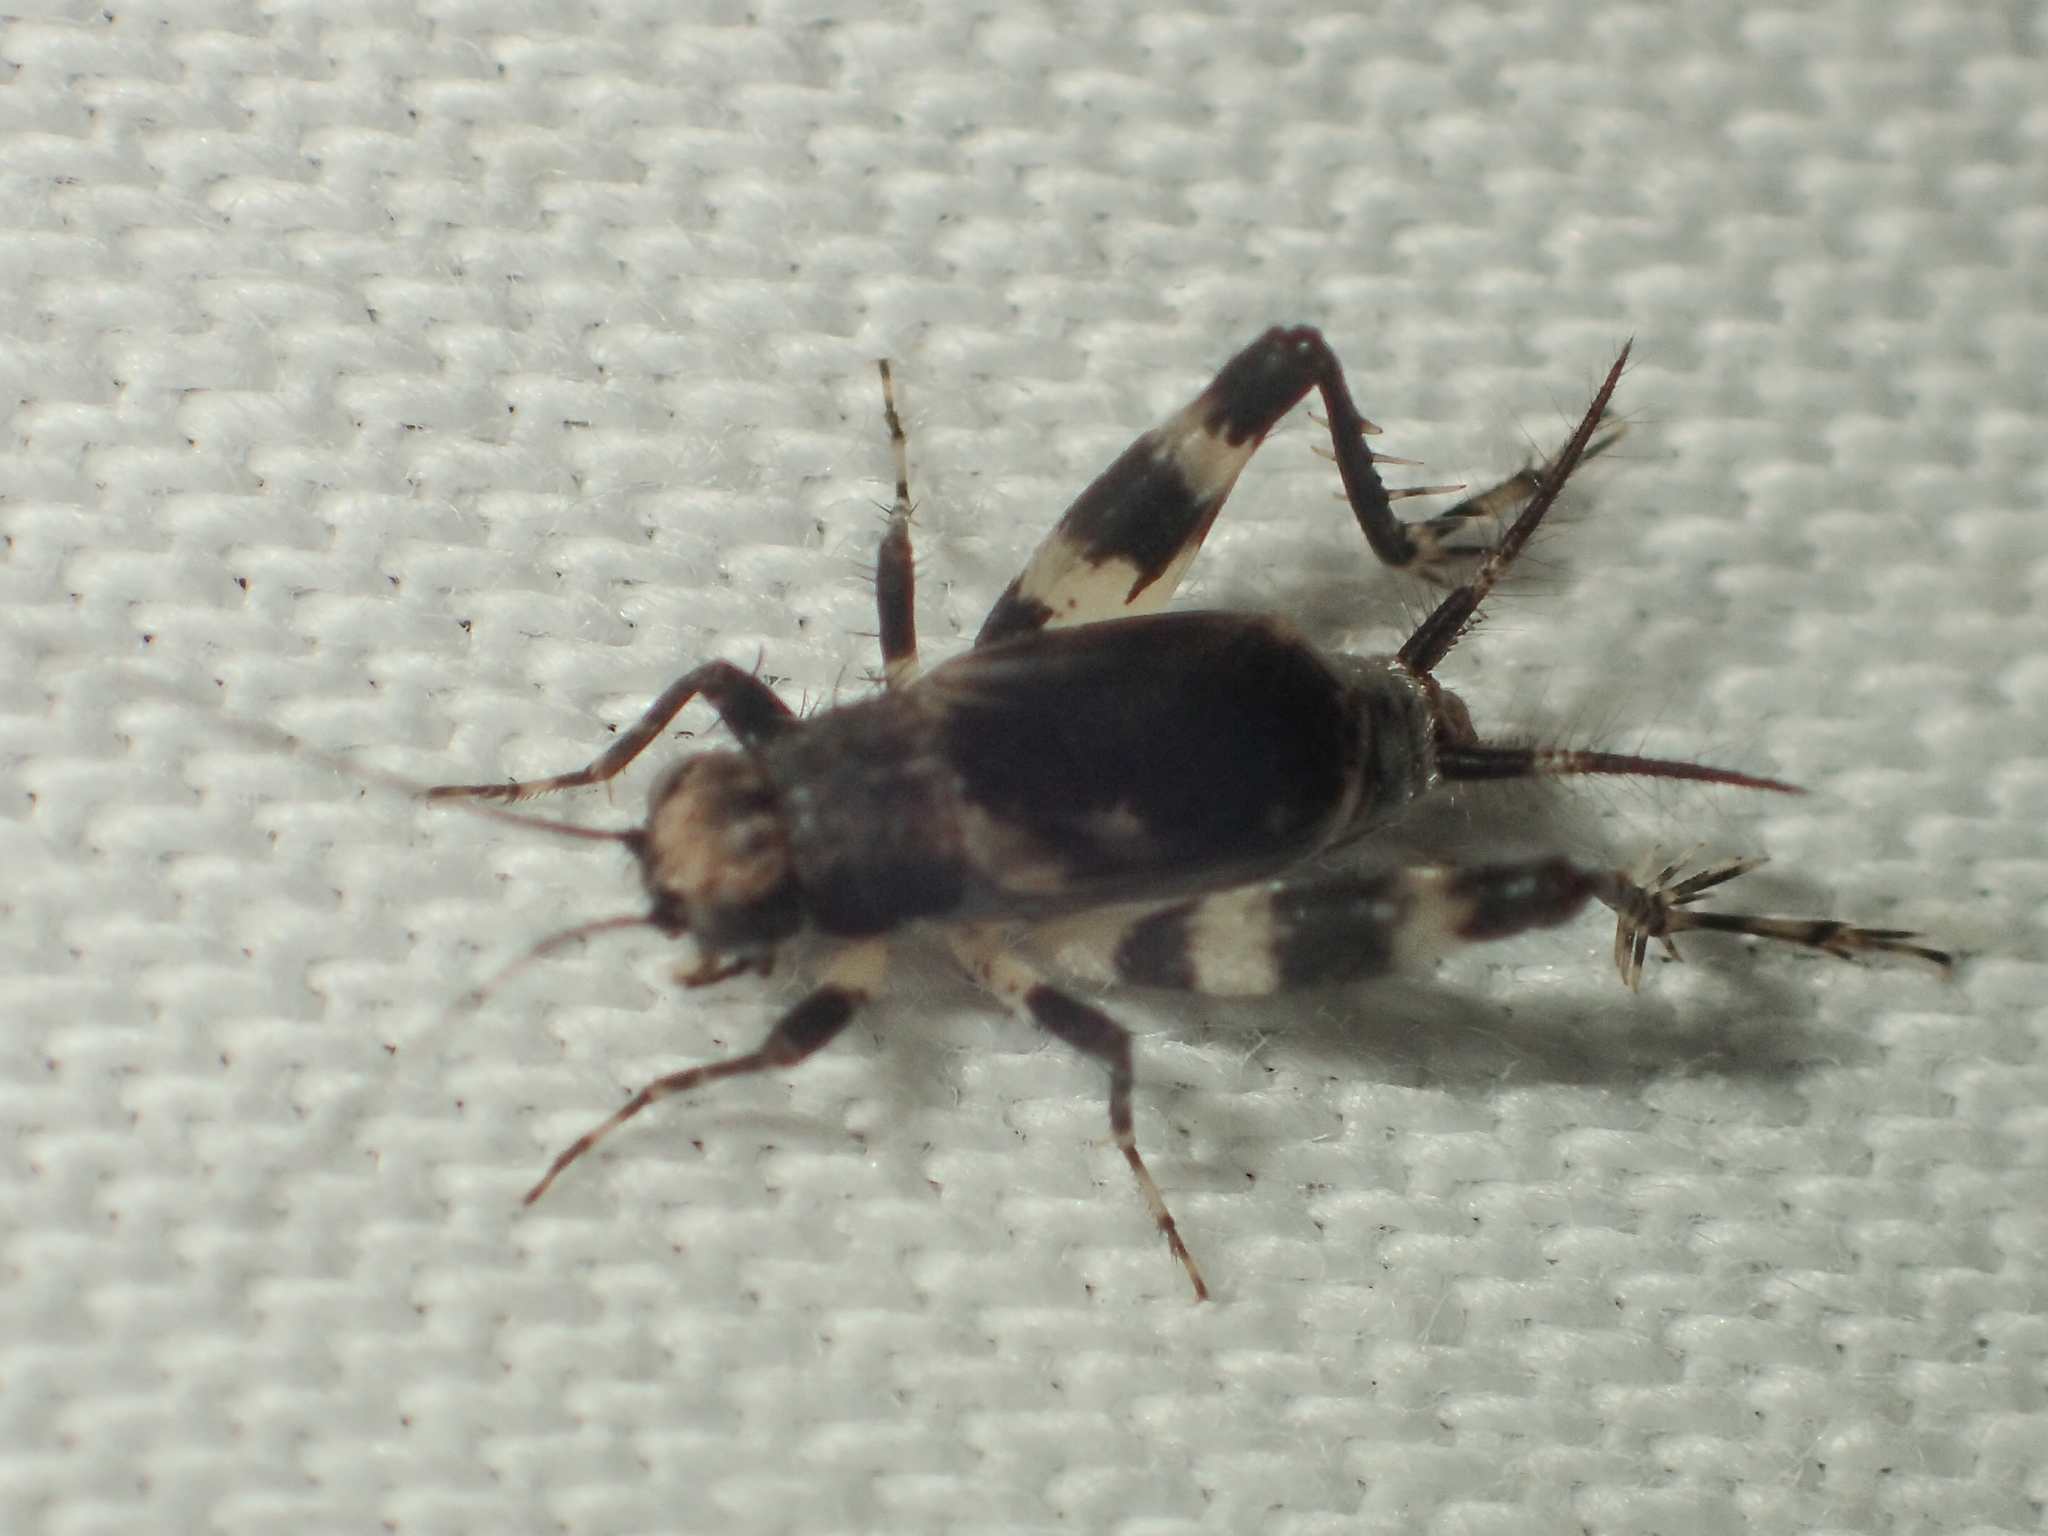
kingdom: Animalia
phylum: Arthropoda
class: Insecta
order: Orthoptera
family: Trigonidiidae
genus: Dianemobius
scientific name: Dianemobius fascipes
